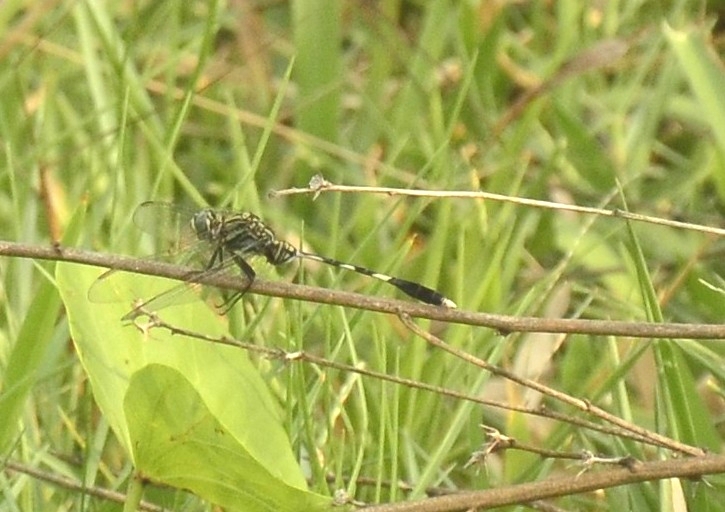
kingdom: Animalia
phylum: Arthropoda
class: Insecta
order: Odonata
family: Libellulidae
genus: Orthetrum
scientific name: Orthetrum sabina
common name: Slender skimmer
